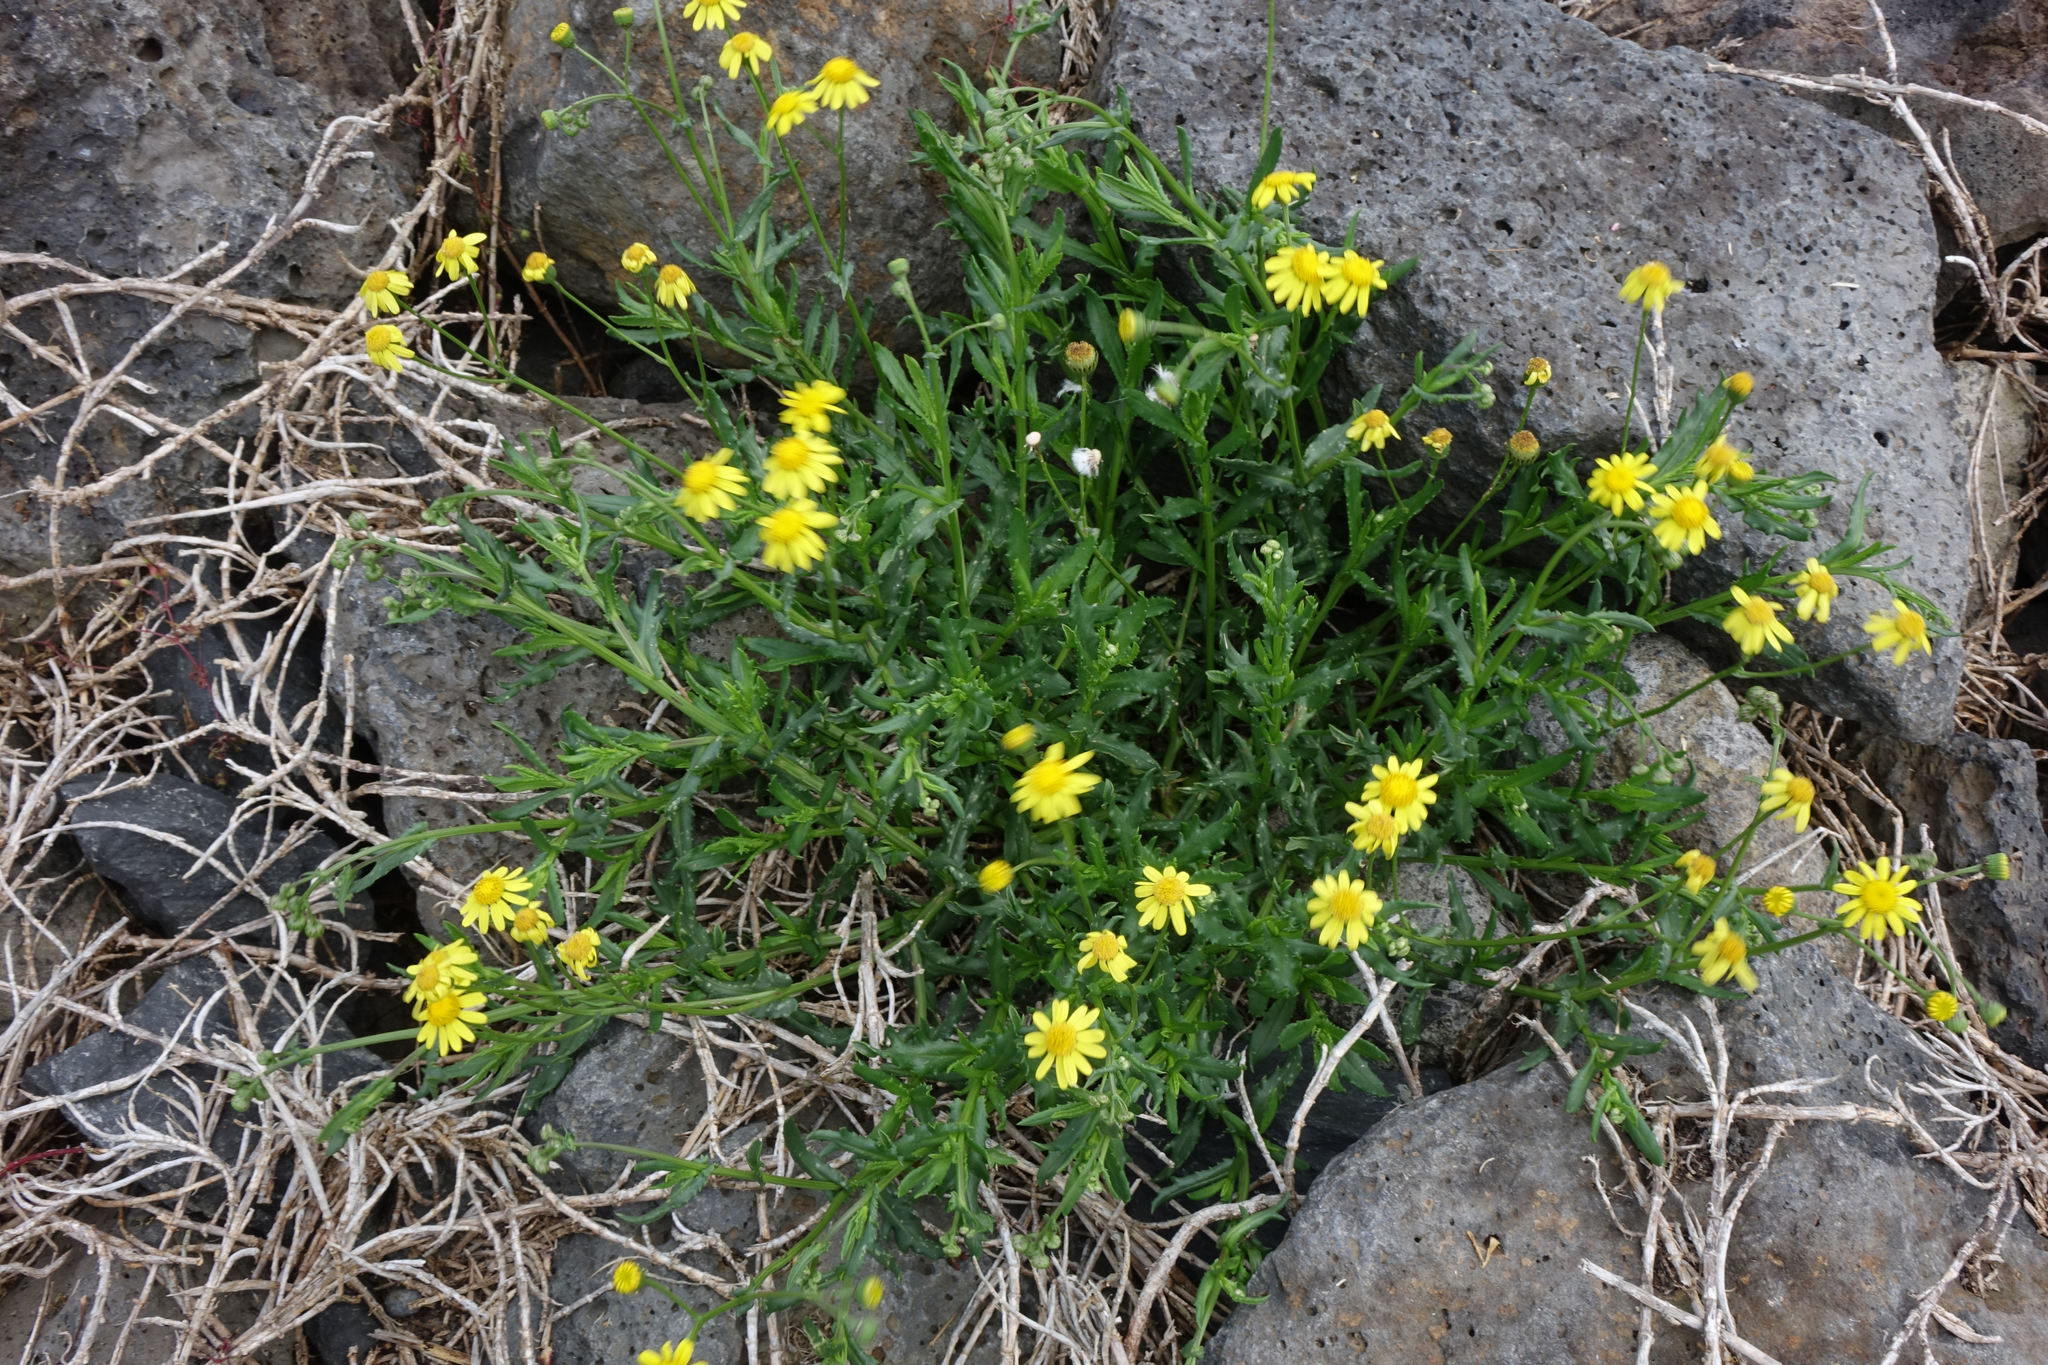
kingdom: Plantae
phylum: Tracheophyta
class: Magnoliopsida
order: Asterales
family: Asteraceae
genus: Senecio
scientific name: Senecio skirrhodon
